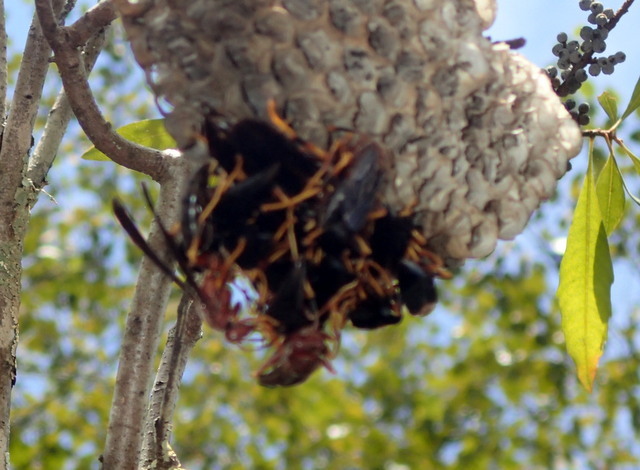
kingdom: Animalia
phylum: Arthropoda
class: Insecta
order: Hymenoptera
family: Eumenidae
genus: Polistes
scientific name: Polistes annularis
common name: Ringed paper wasp
